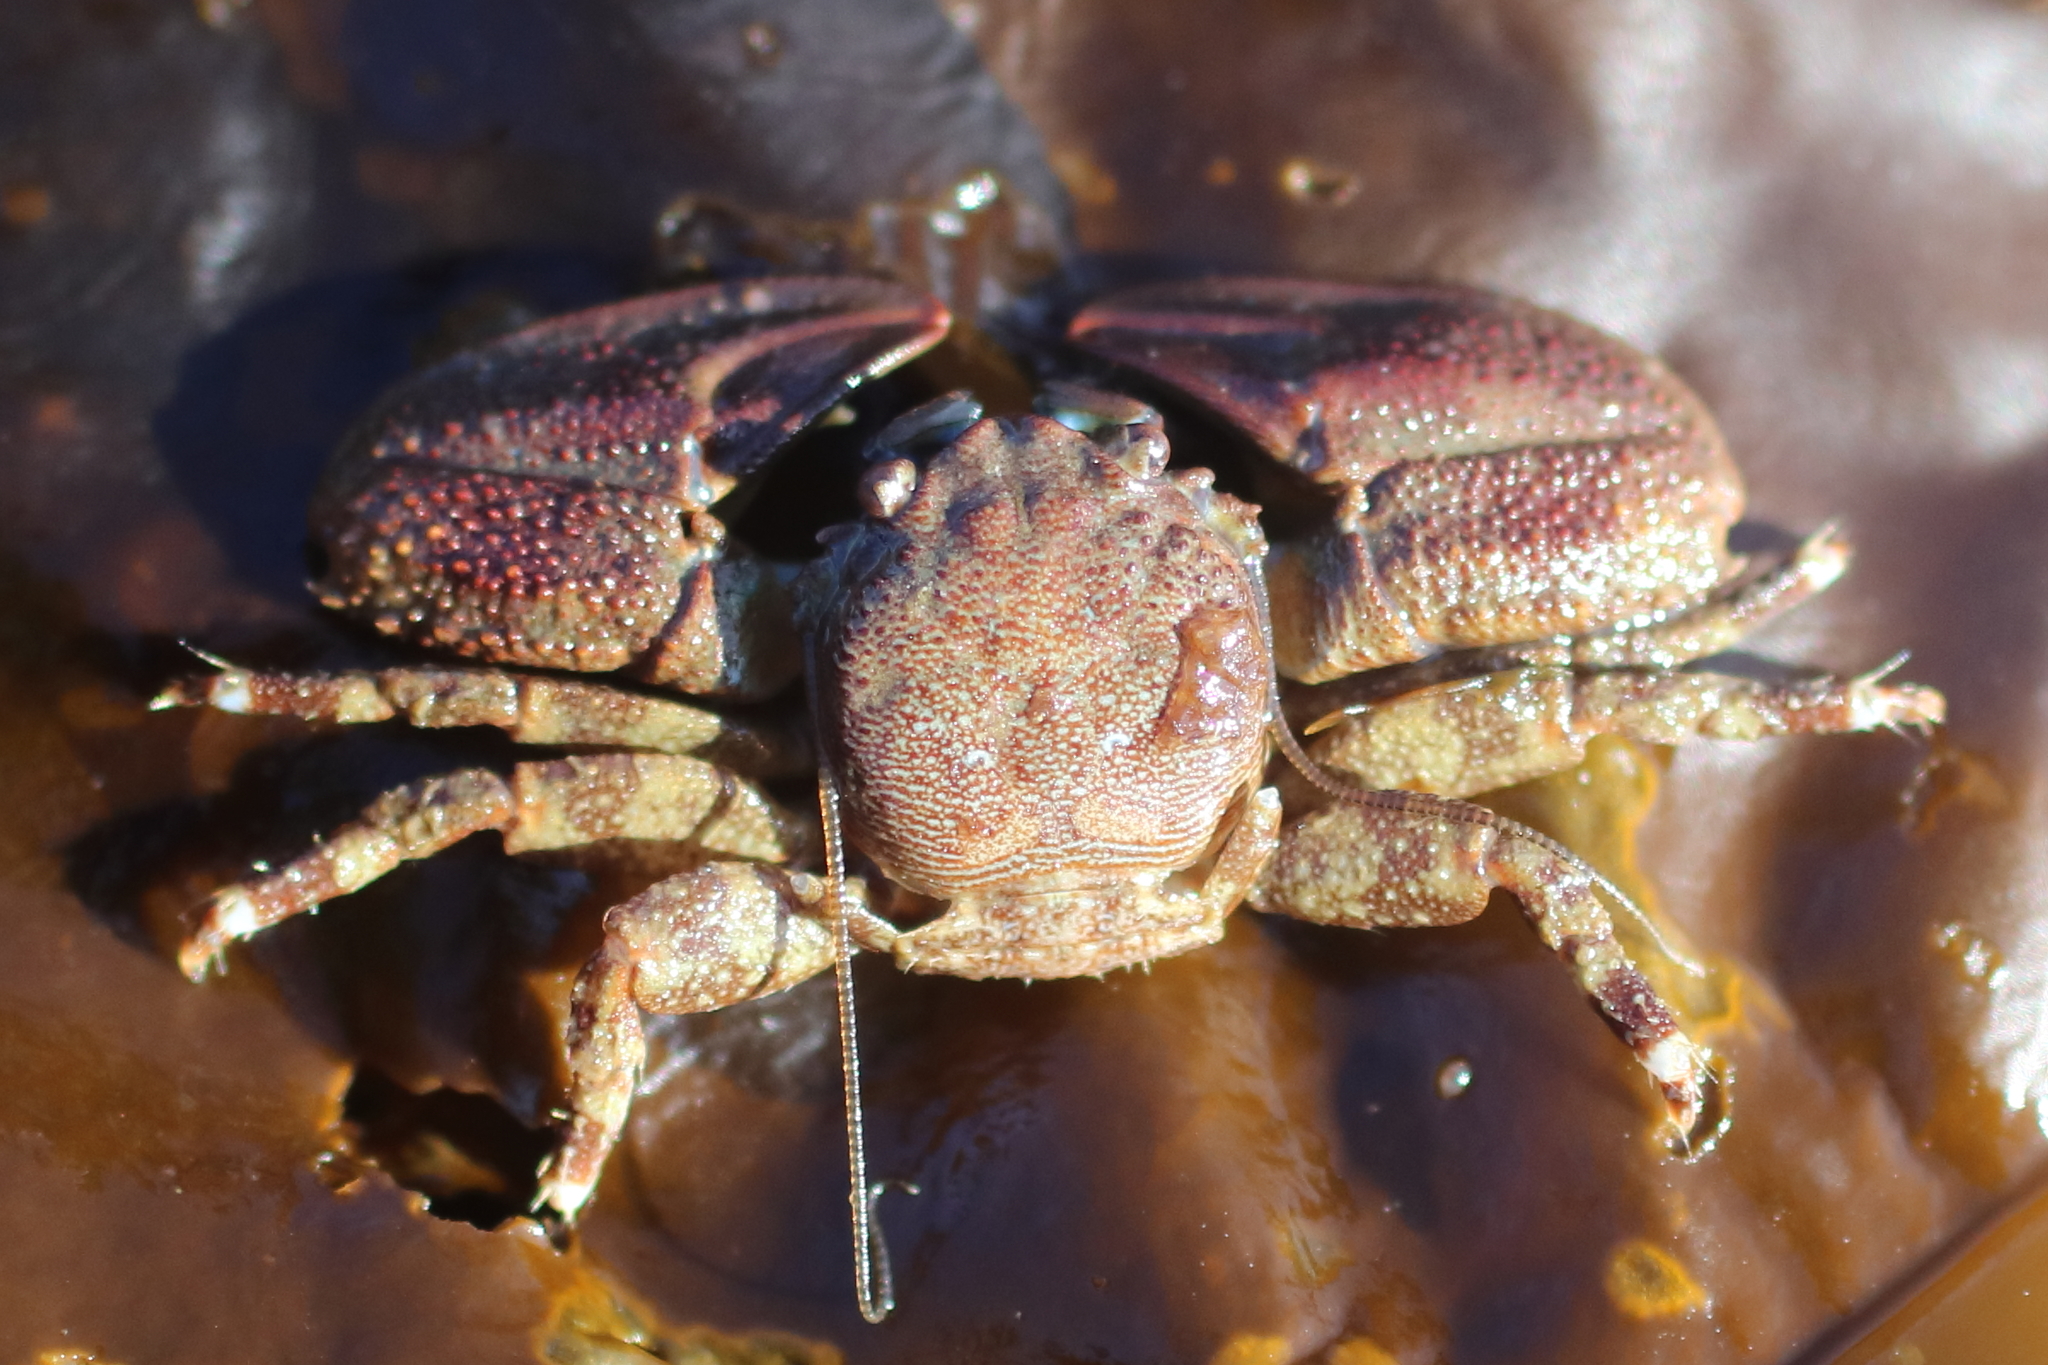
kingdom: Animalia
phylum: Arthropoda
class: Malacostraca
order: Decapoda
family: Porcellanidae
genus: Petrolisthes
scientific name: Petrolisthes eriomerus
